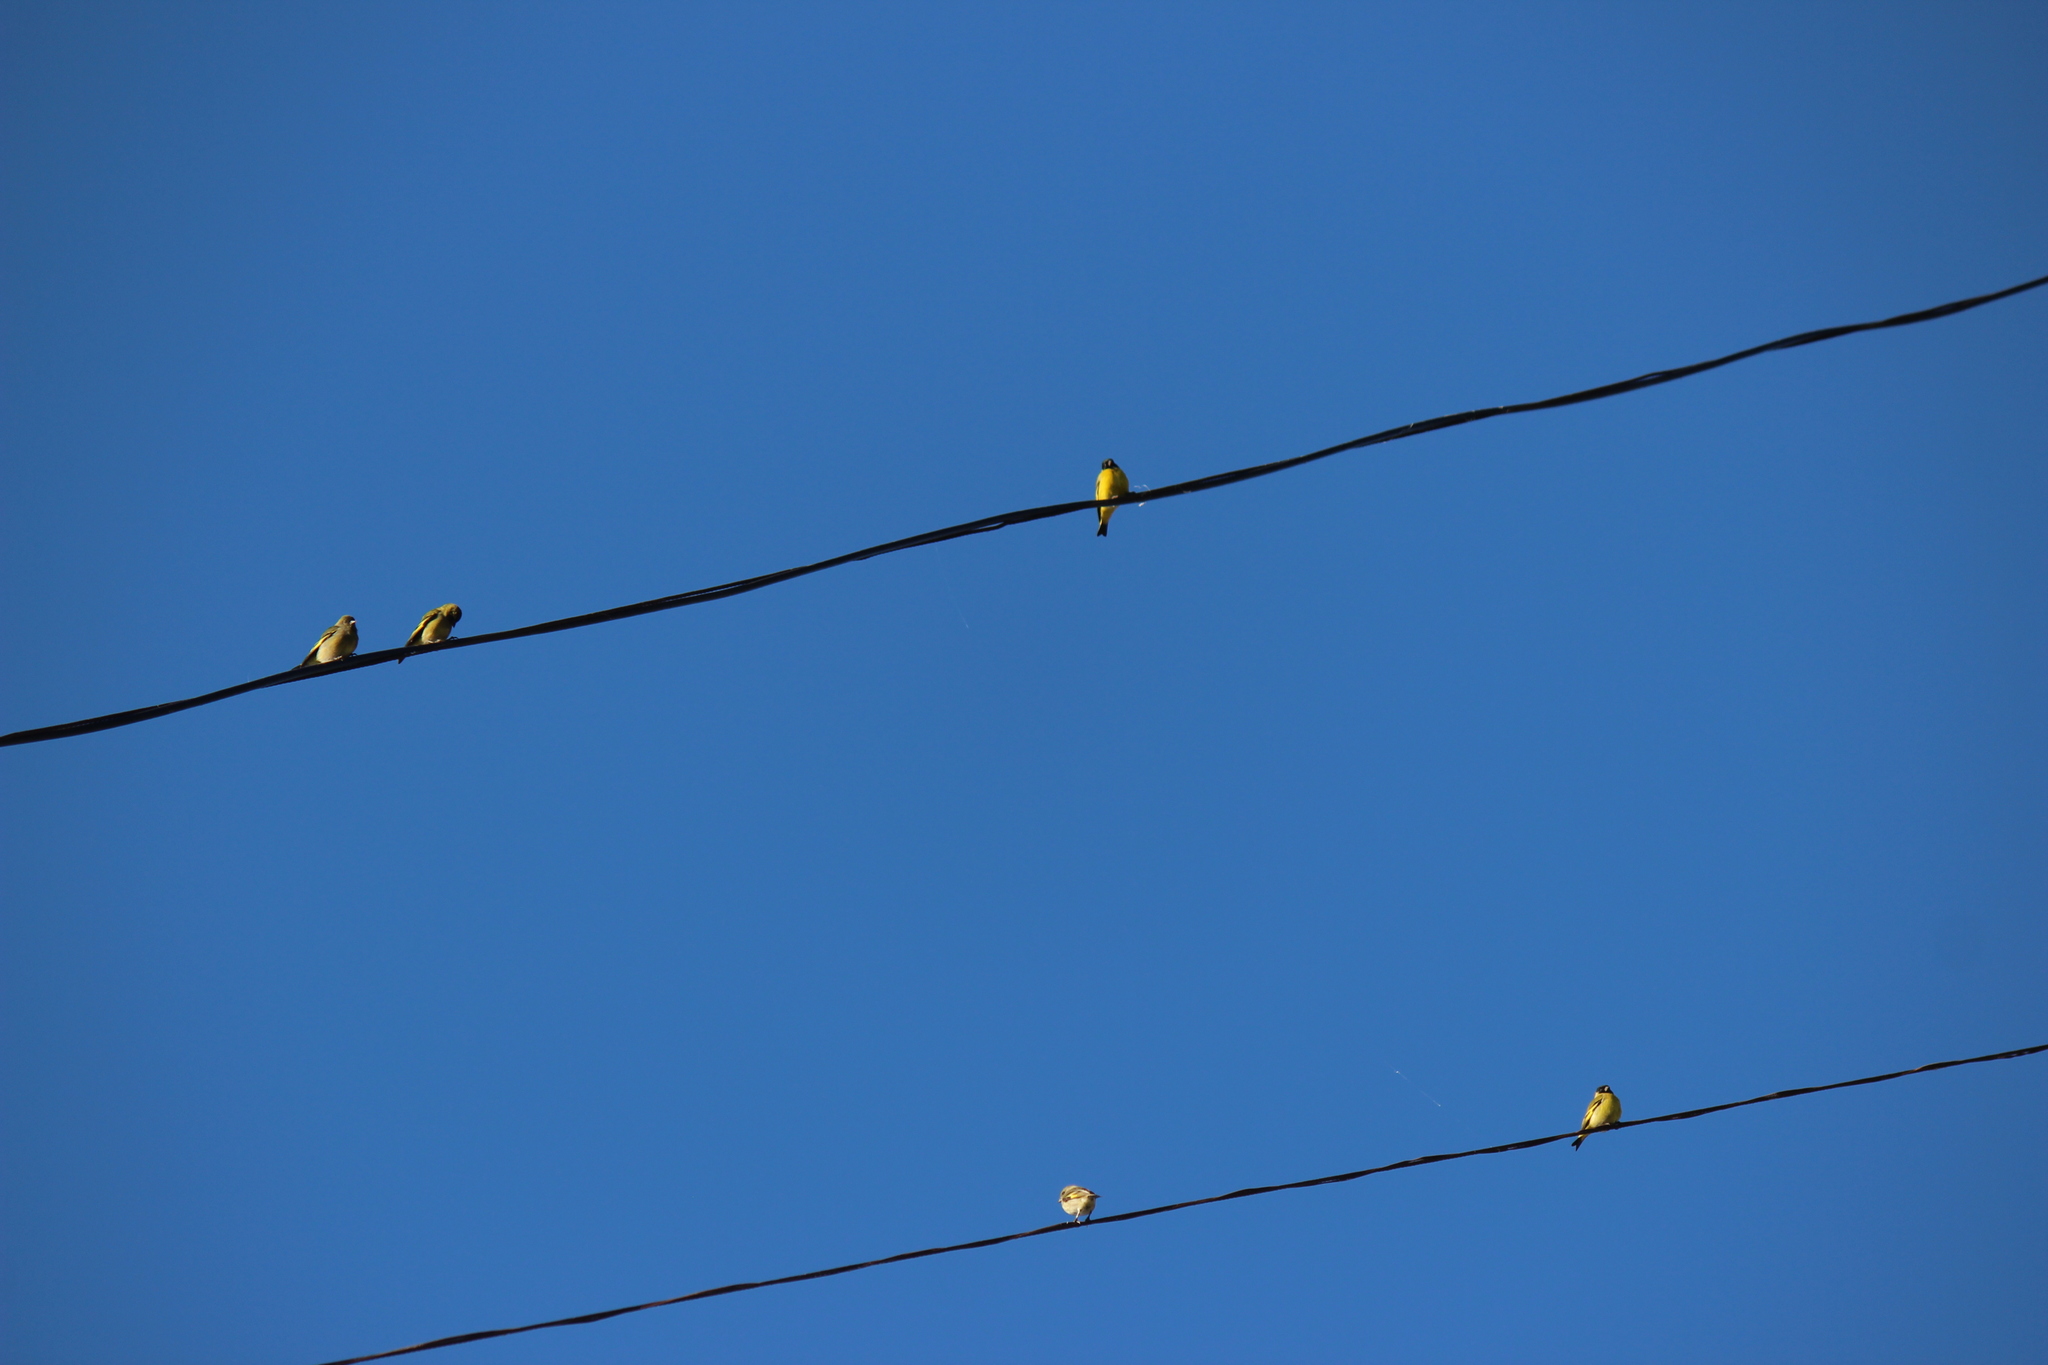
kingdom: Animalia
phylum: Chordata
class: Aves
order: Passeriformes
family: Fringillidae
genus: Spinus
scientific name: Spinus magellanicus
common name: Hooded siskin
